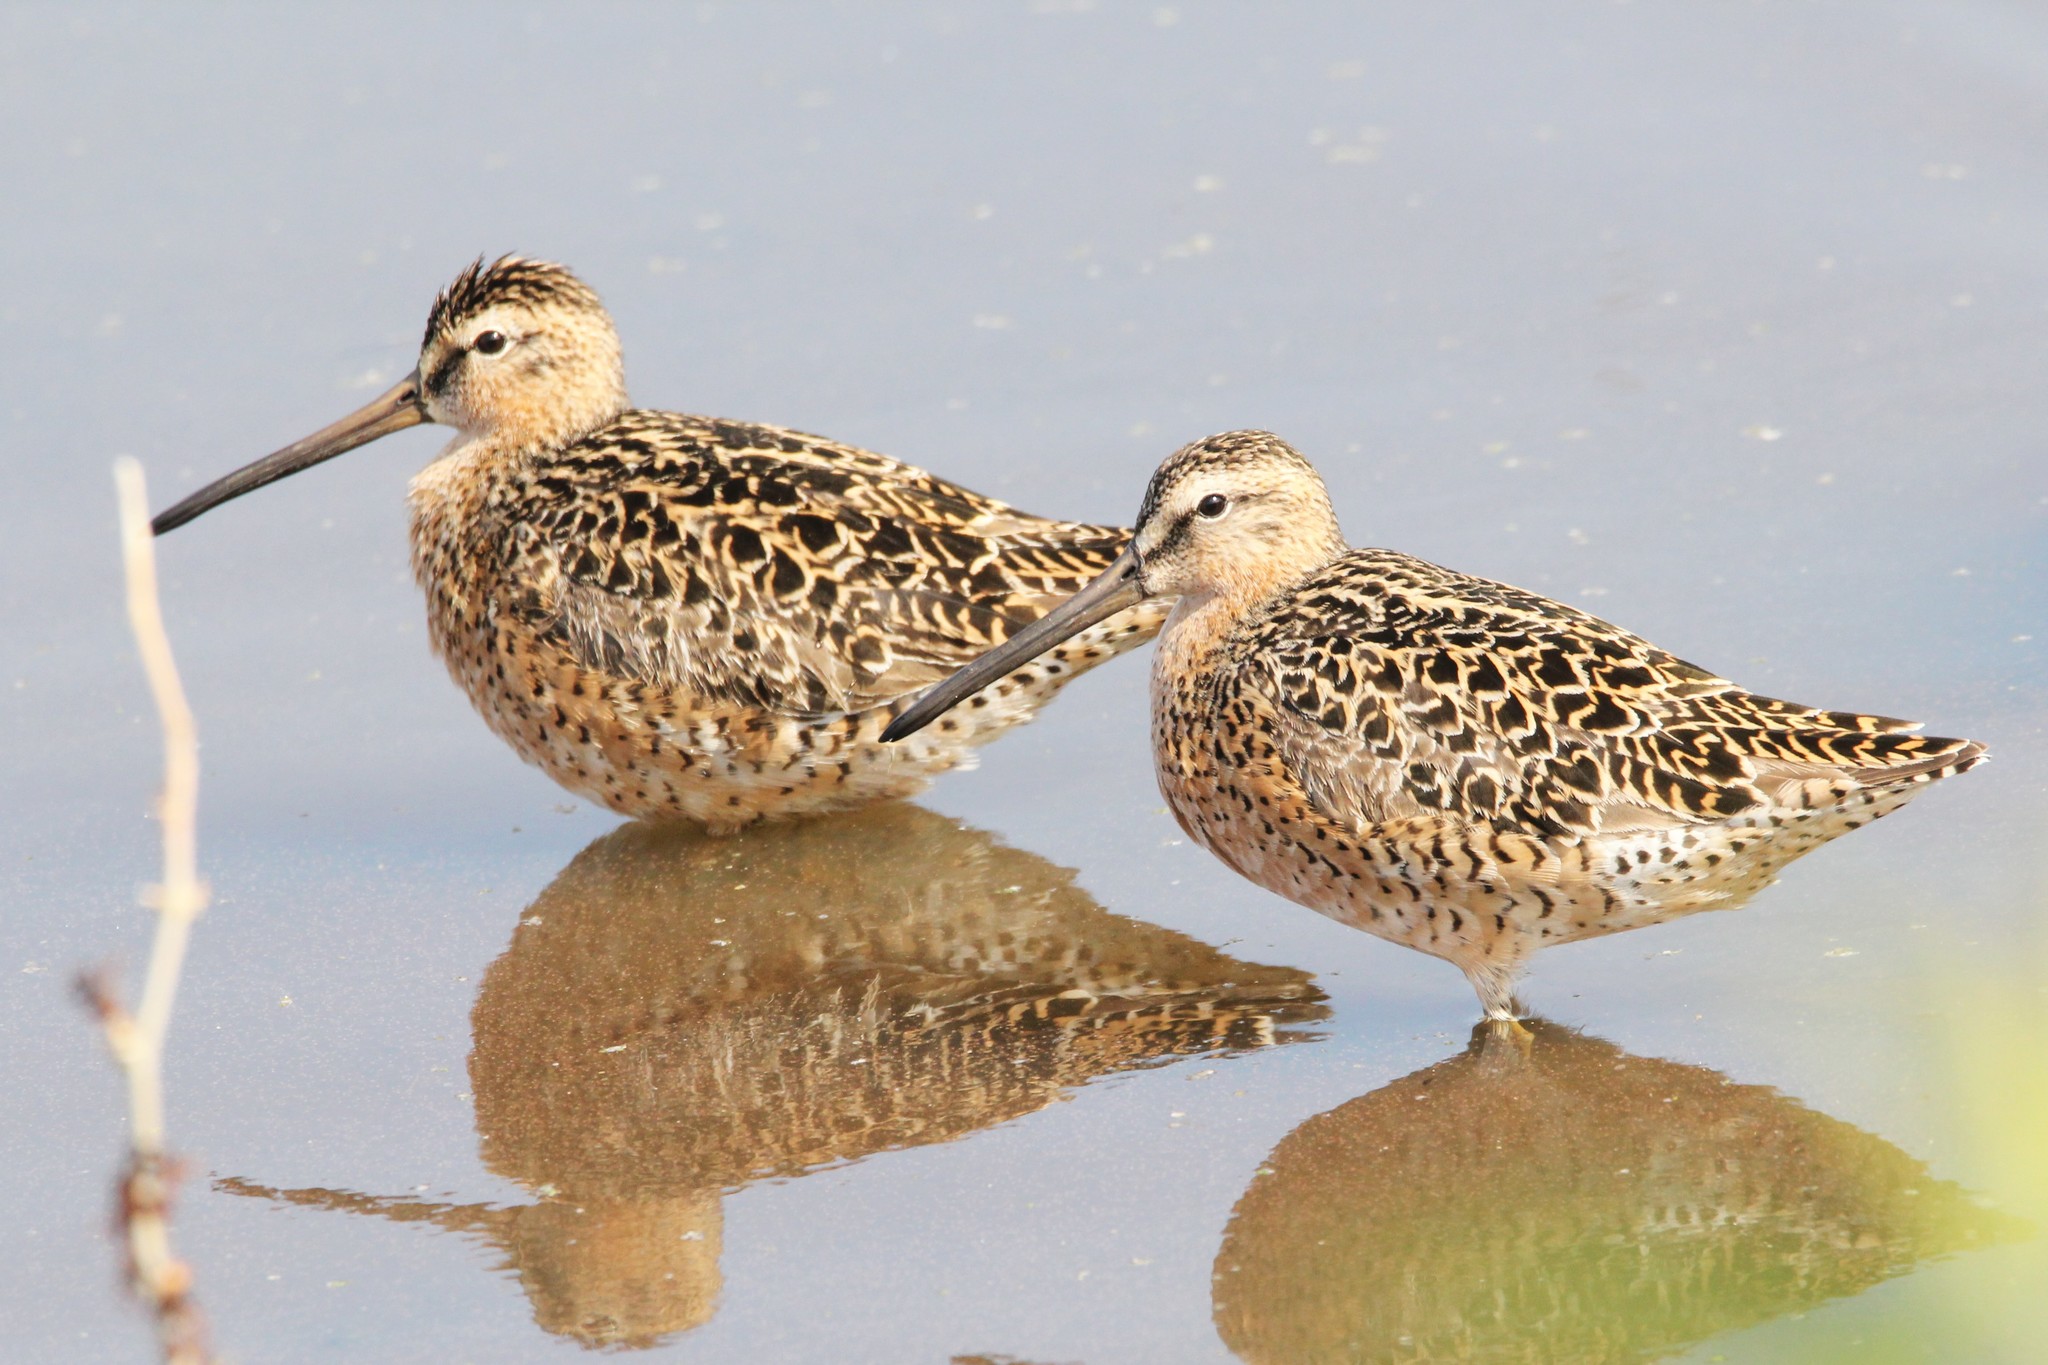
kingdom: Animalia
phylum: Chordata
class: Aves
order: Charadriiformes
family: Scolopacidae
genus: Limnodromus
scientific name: Limnodromus griseus
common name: Short-billed dowitcher
